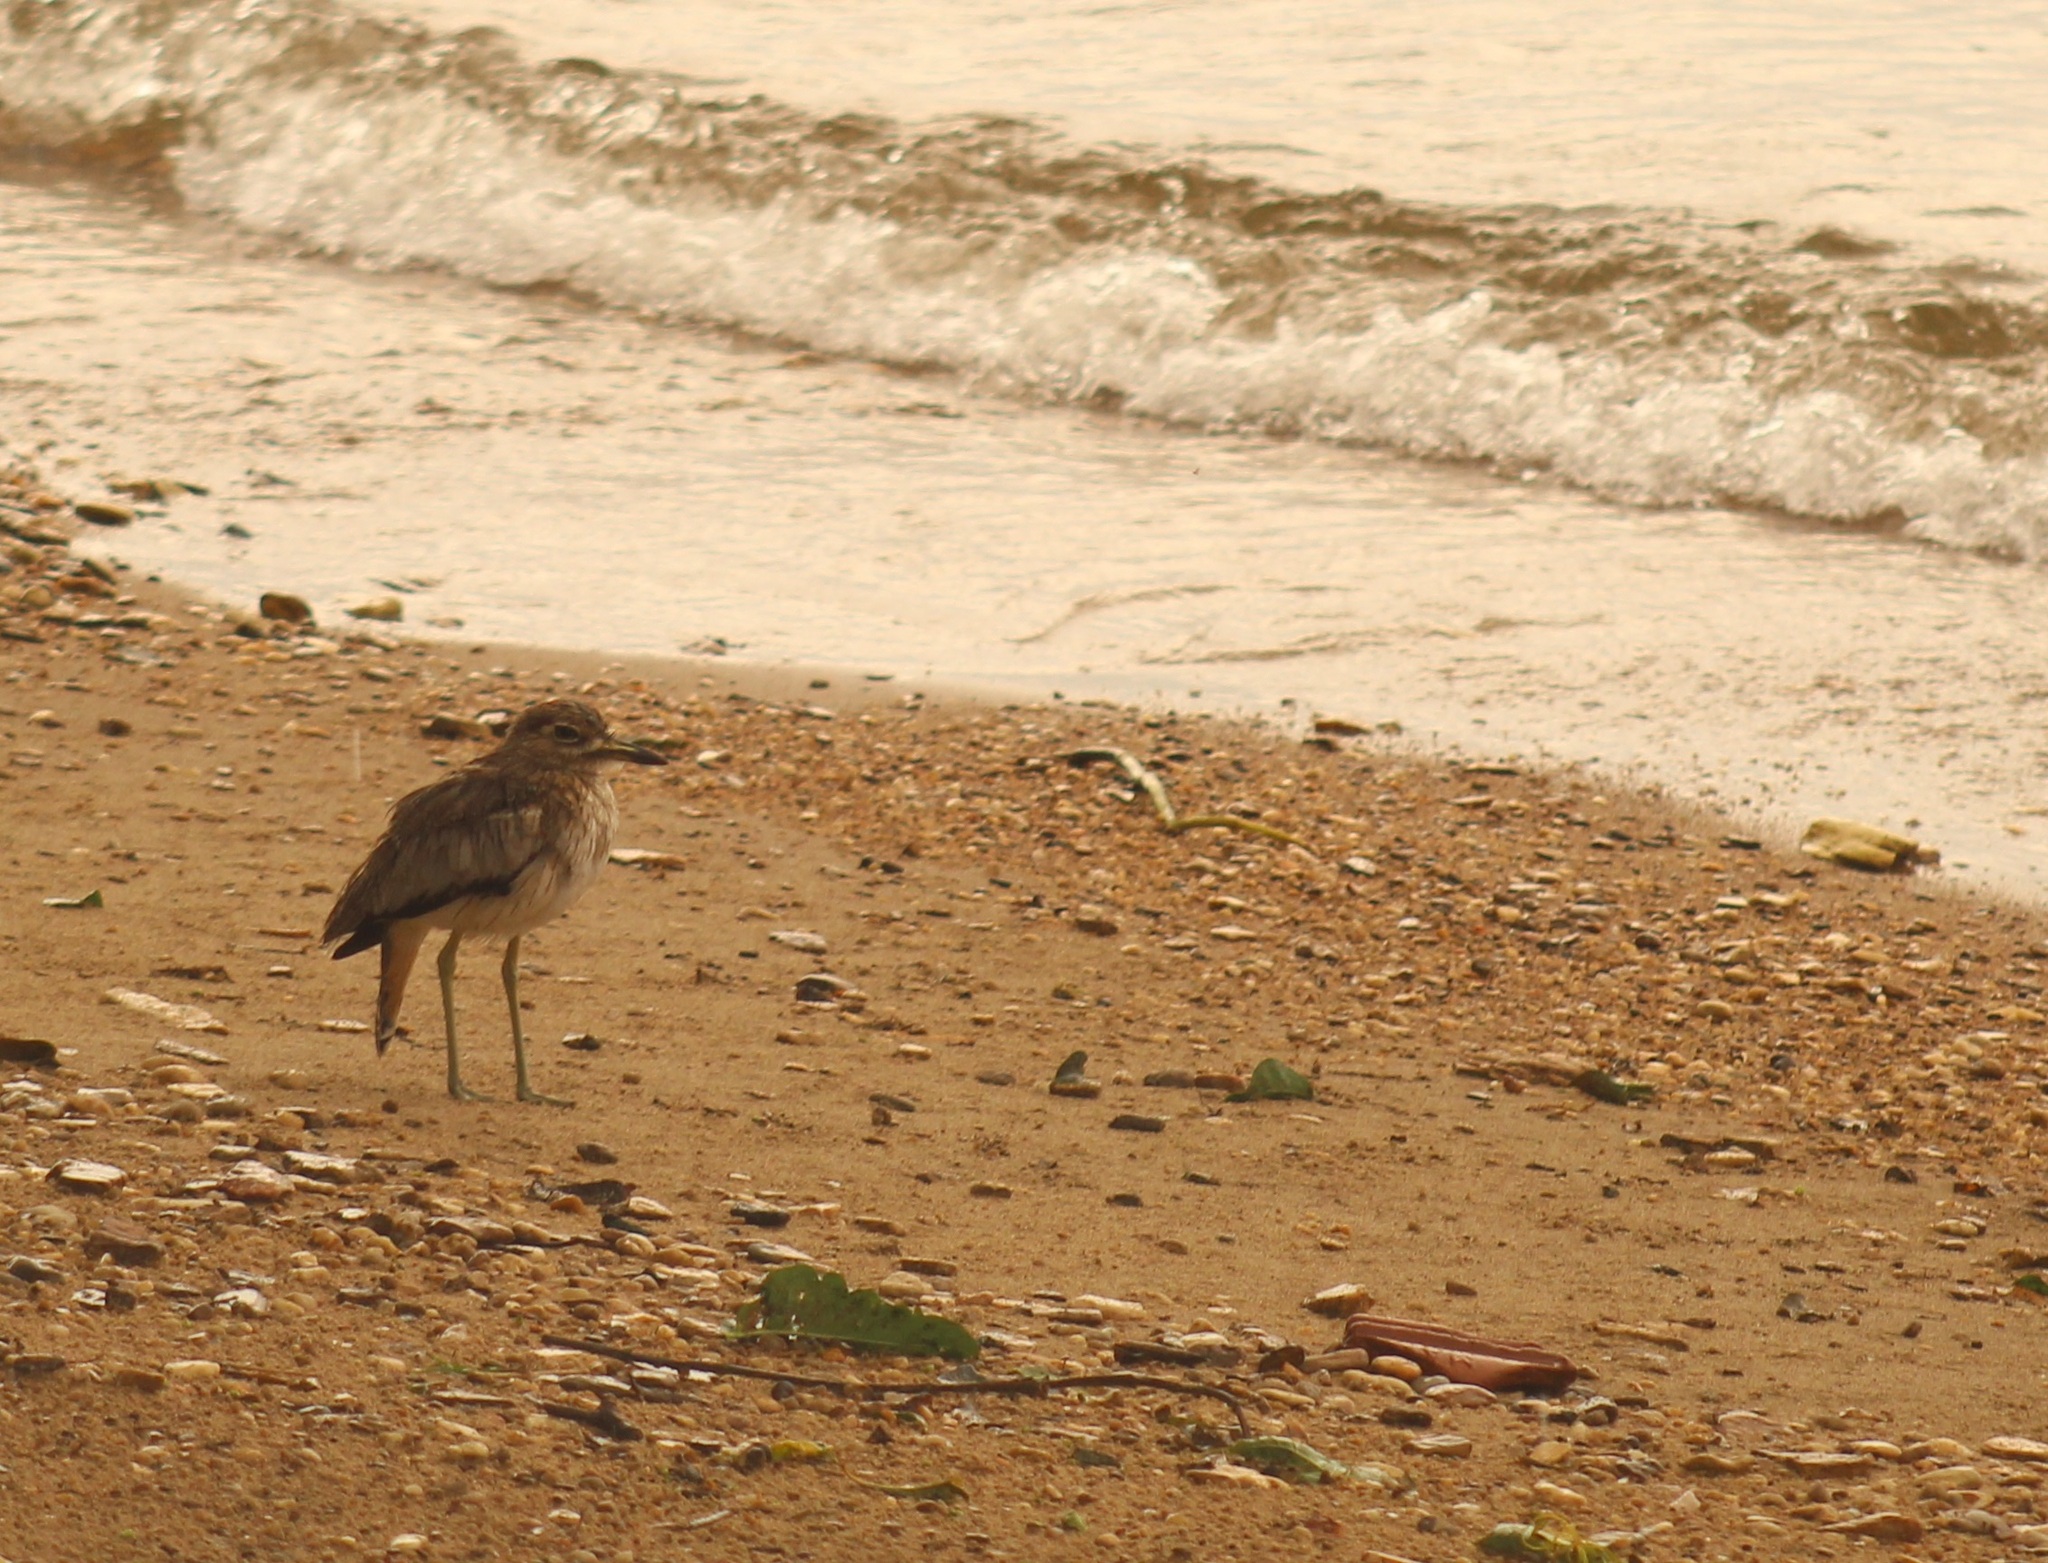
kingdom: Animalia
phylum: Chordata
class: Aves
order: Charadriiformes
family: Burhinidae
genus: Burhinus
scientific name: Burhinus vermiculatus
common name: Water thick-knee
